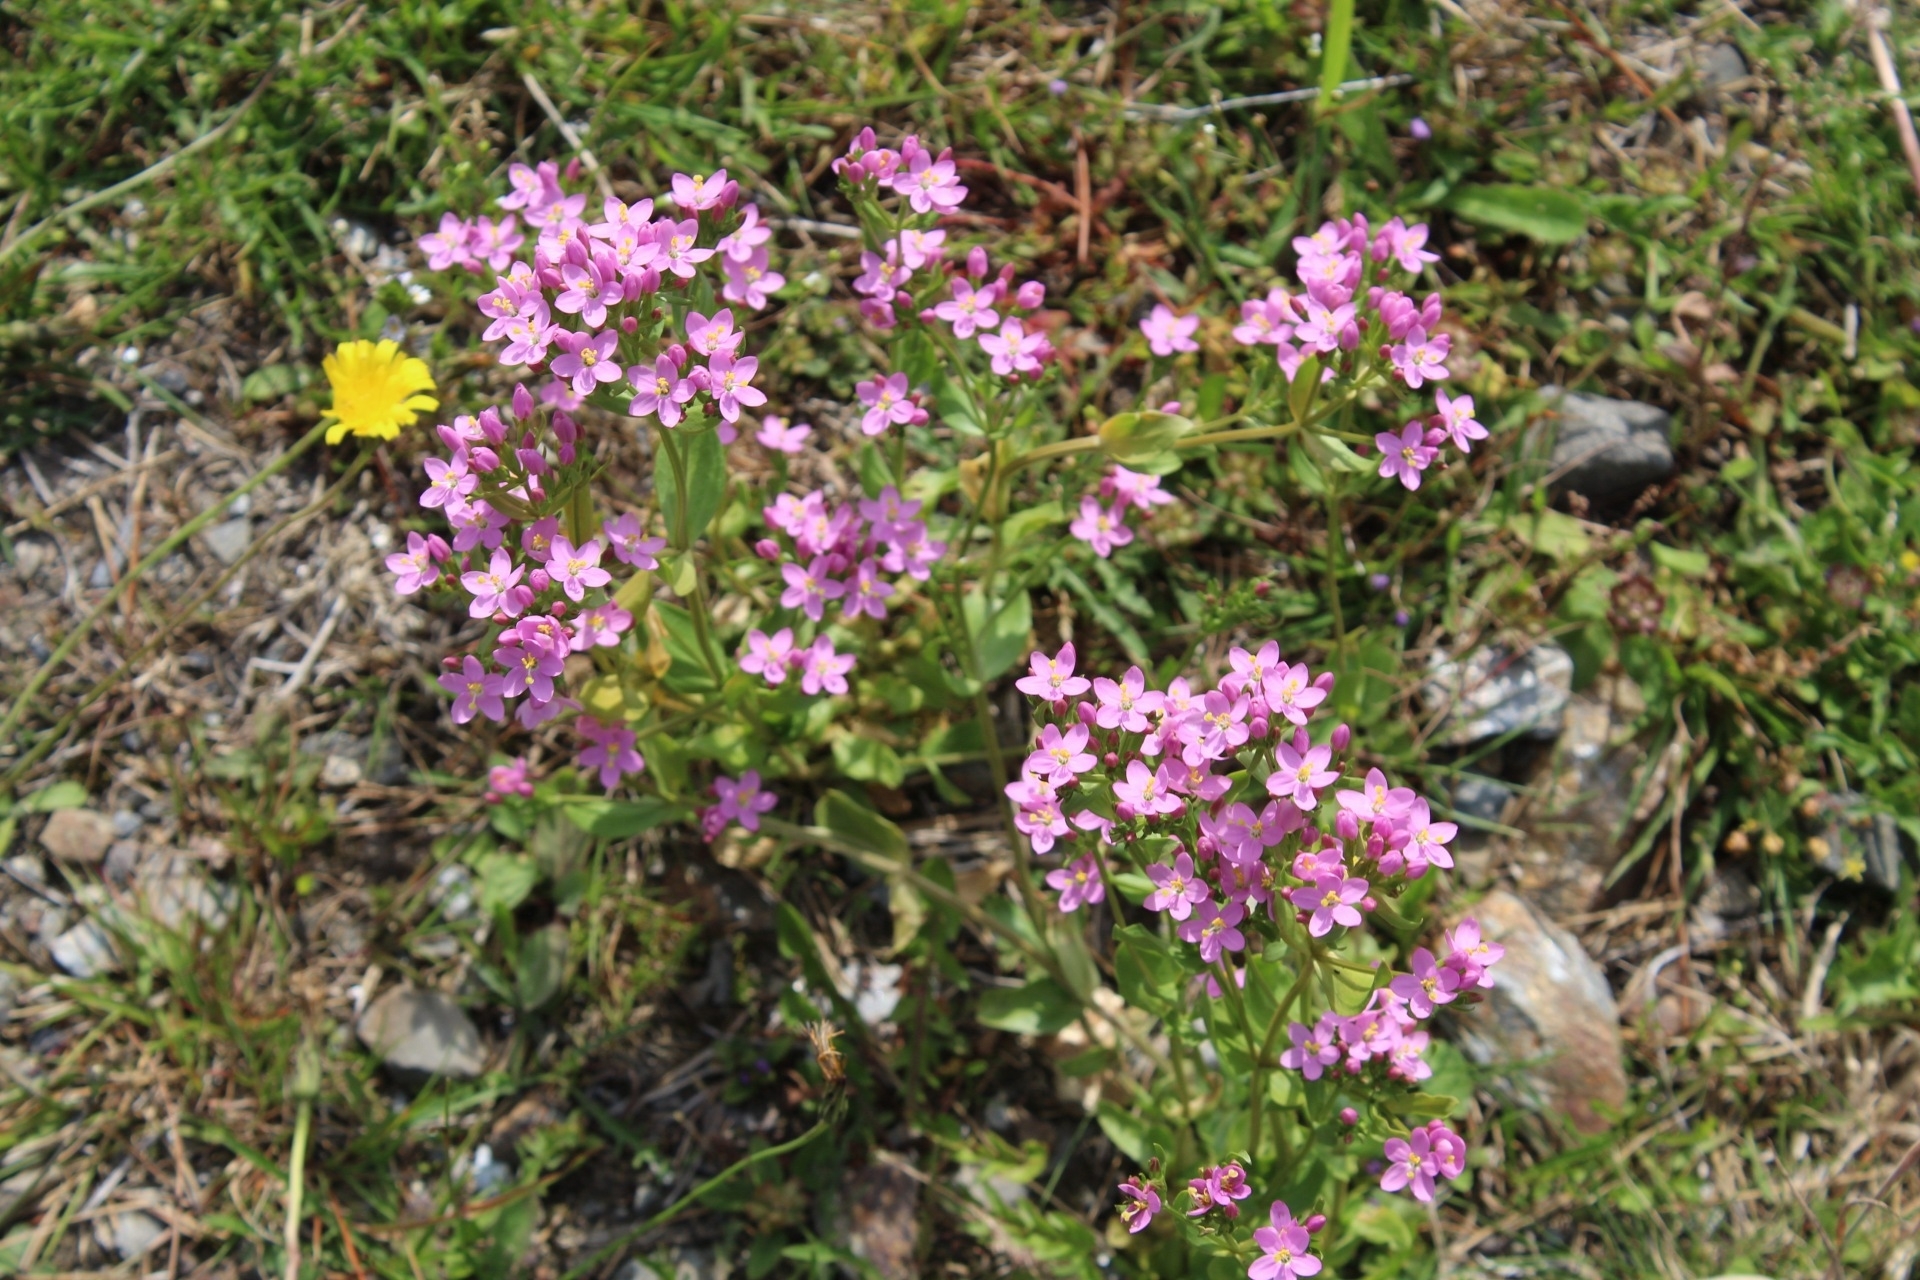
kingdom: Plantae
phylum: Tracheophyta
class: Magnoliopsida
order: Gentianales
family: Gentianaceae
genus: Centaurium
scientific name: Centaurium erythraea
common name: Common centaury
